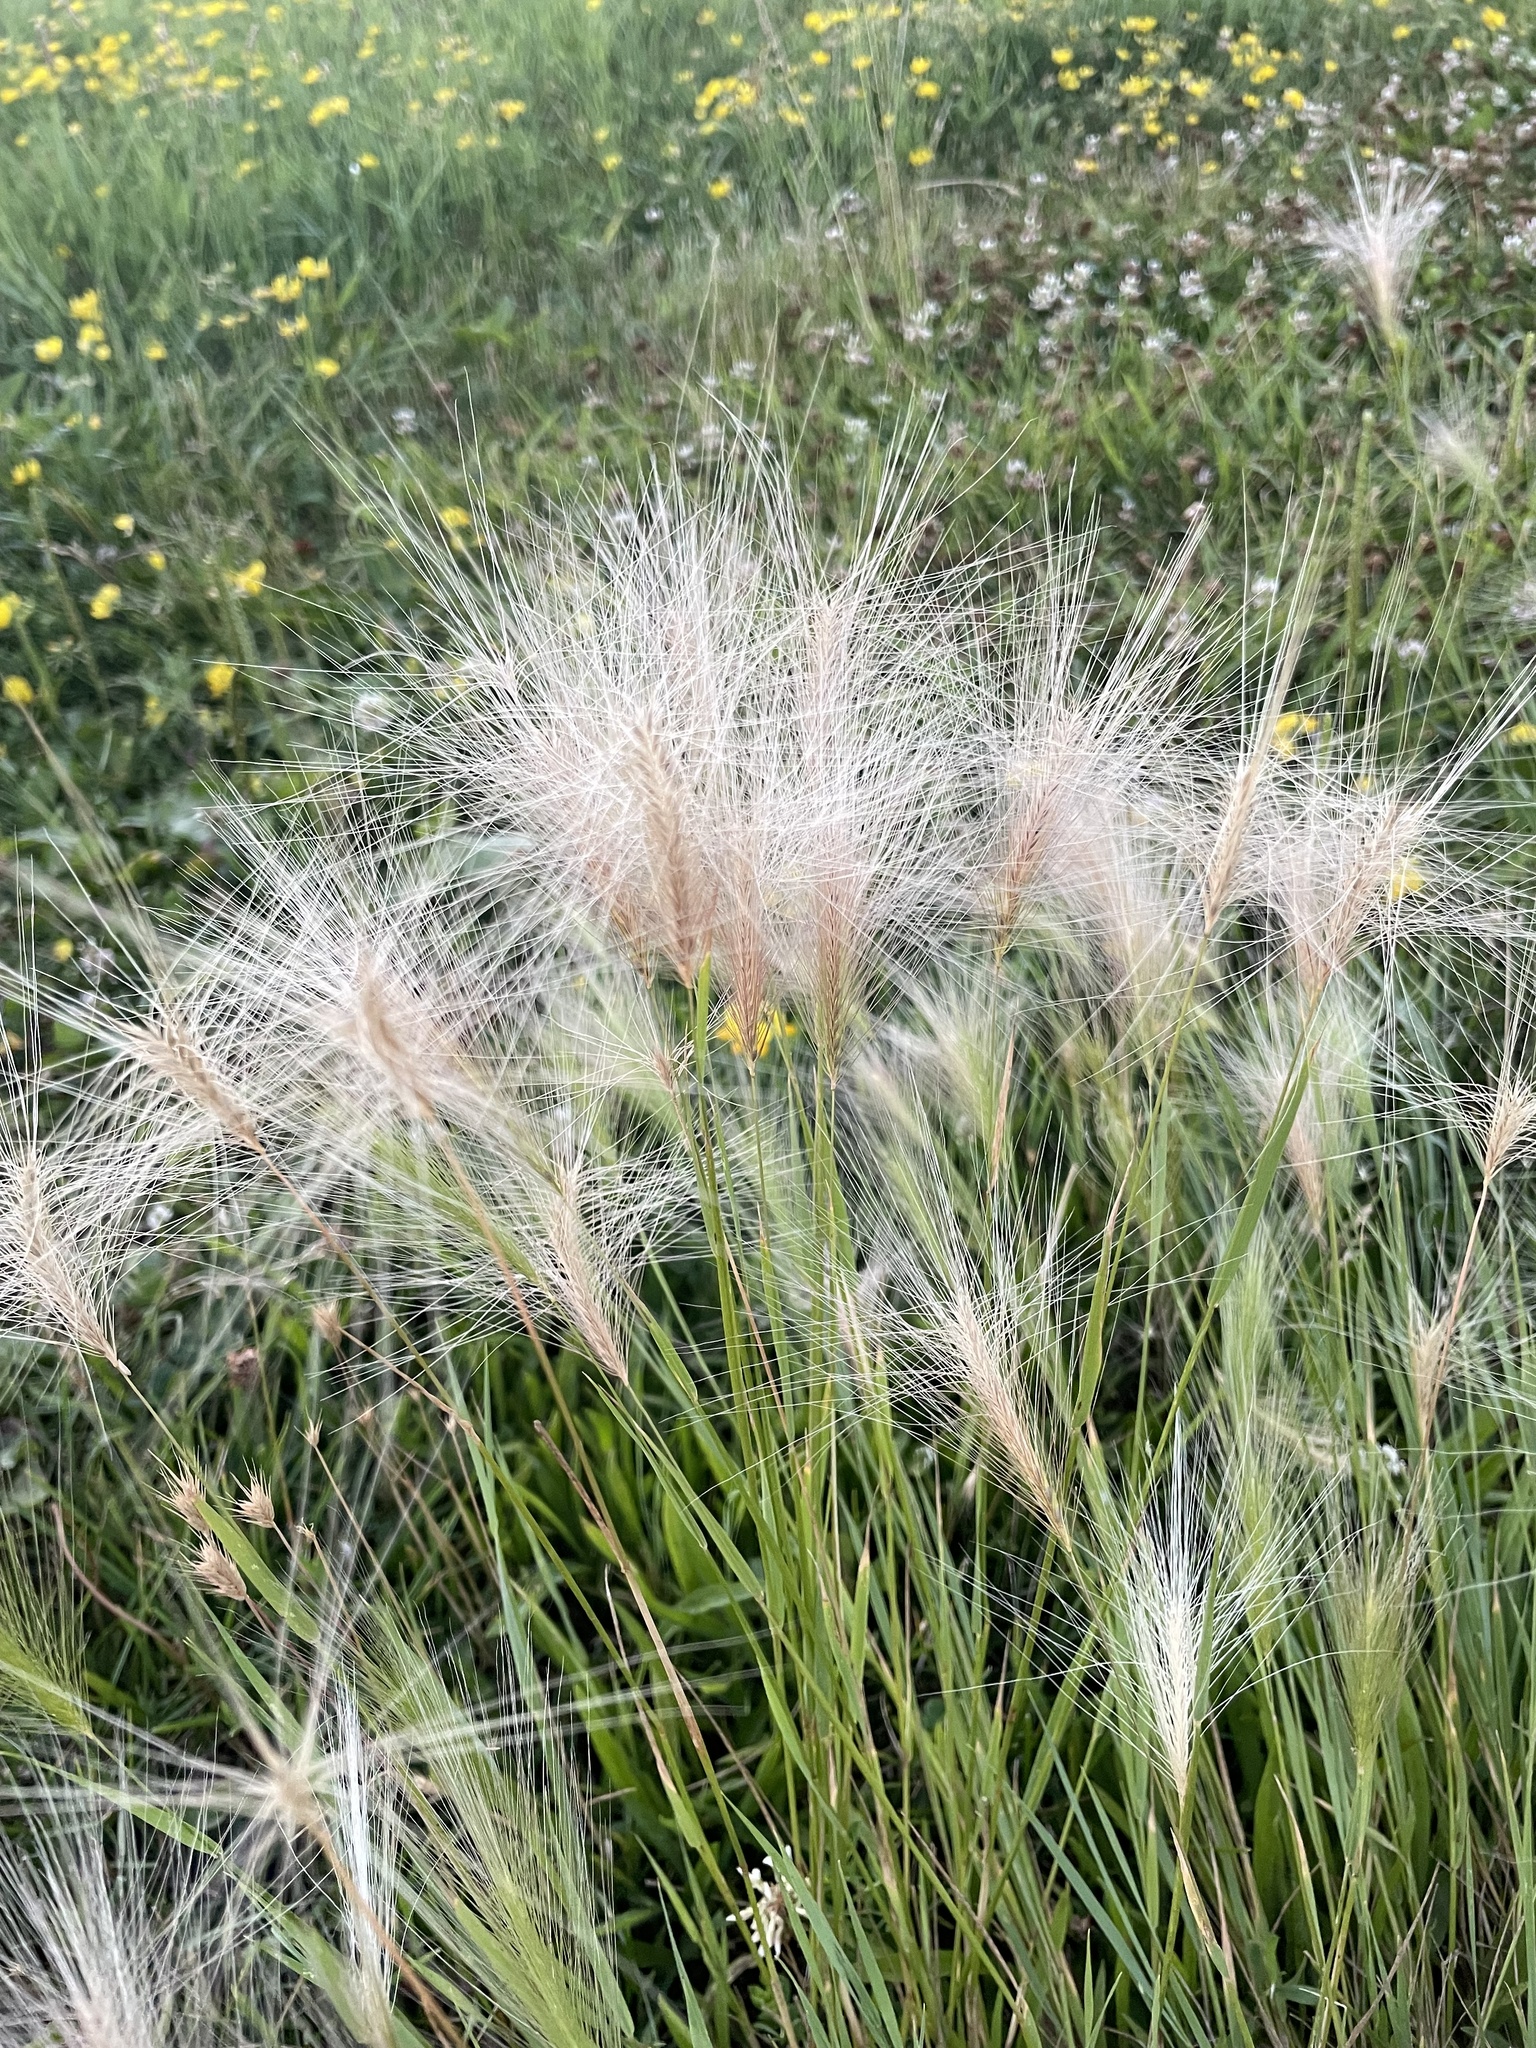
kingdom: Plantae
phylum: Tracheophyta
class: Liliopsida
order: Poales
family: Poaceae
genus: Hordeum
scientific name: Hordeum jubatum
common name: Foxtail barley
